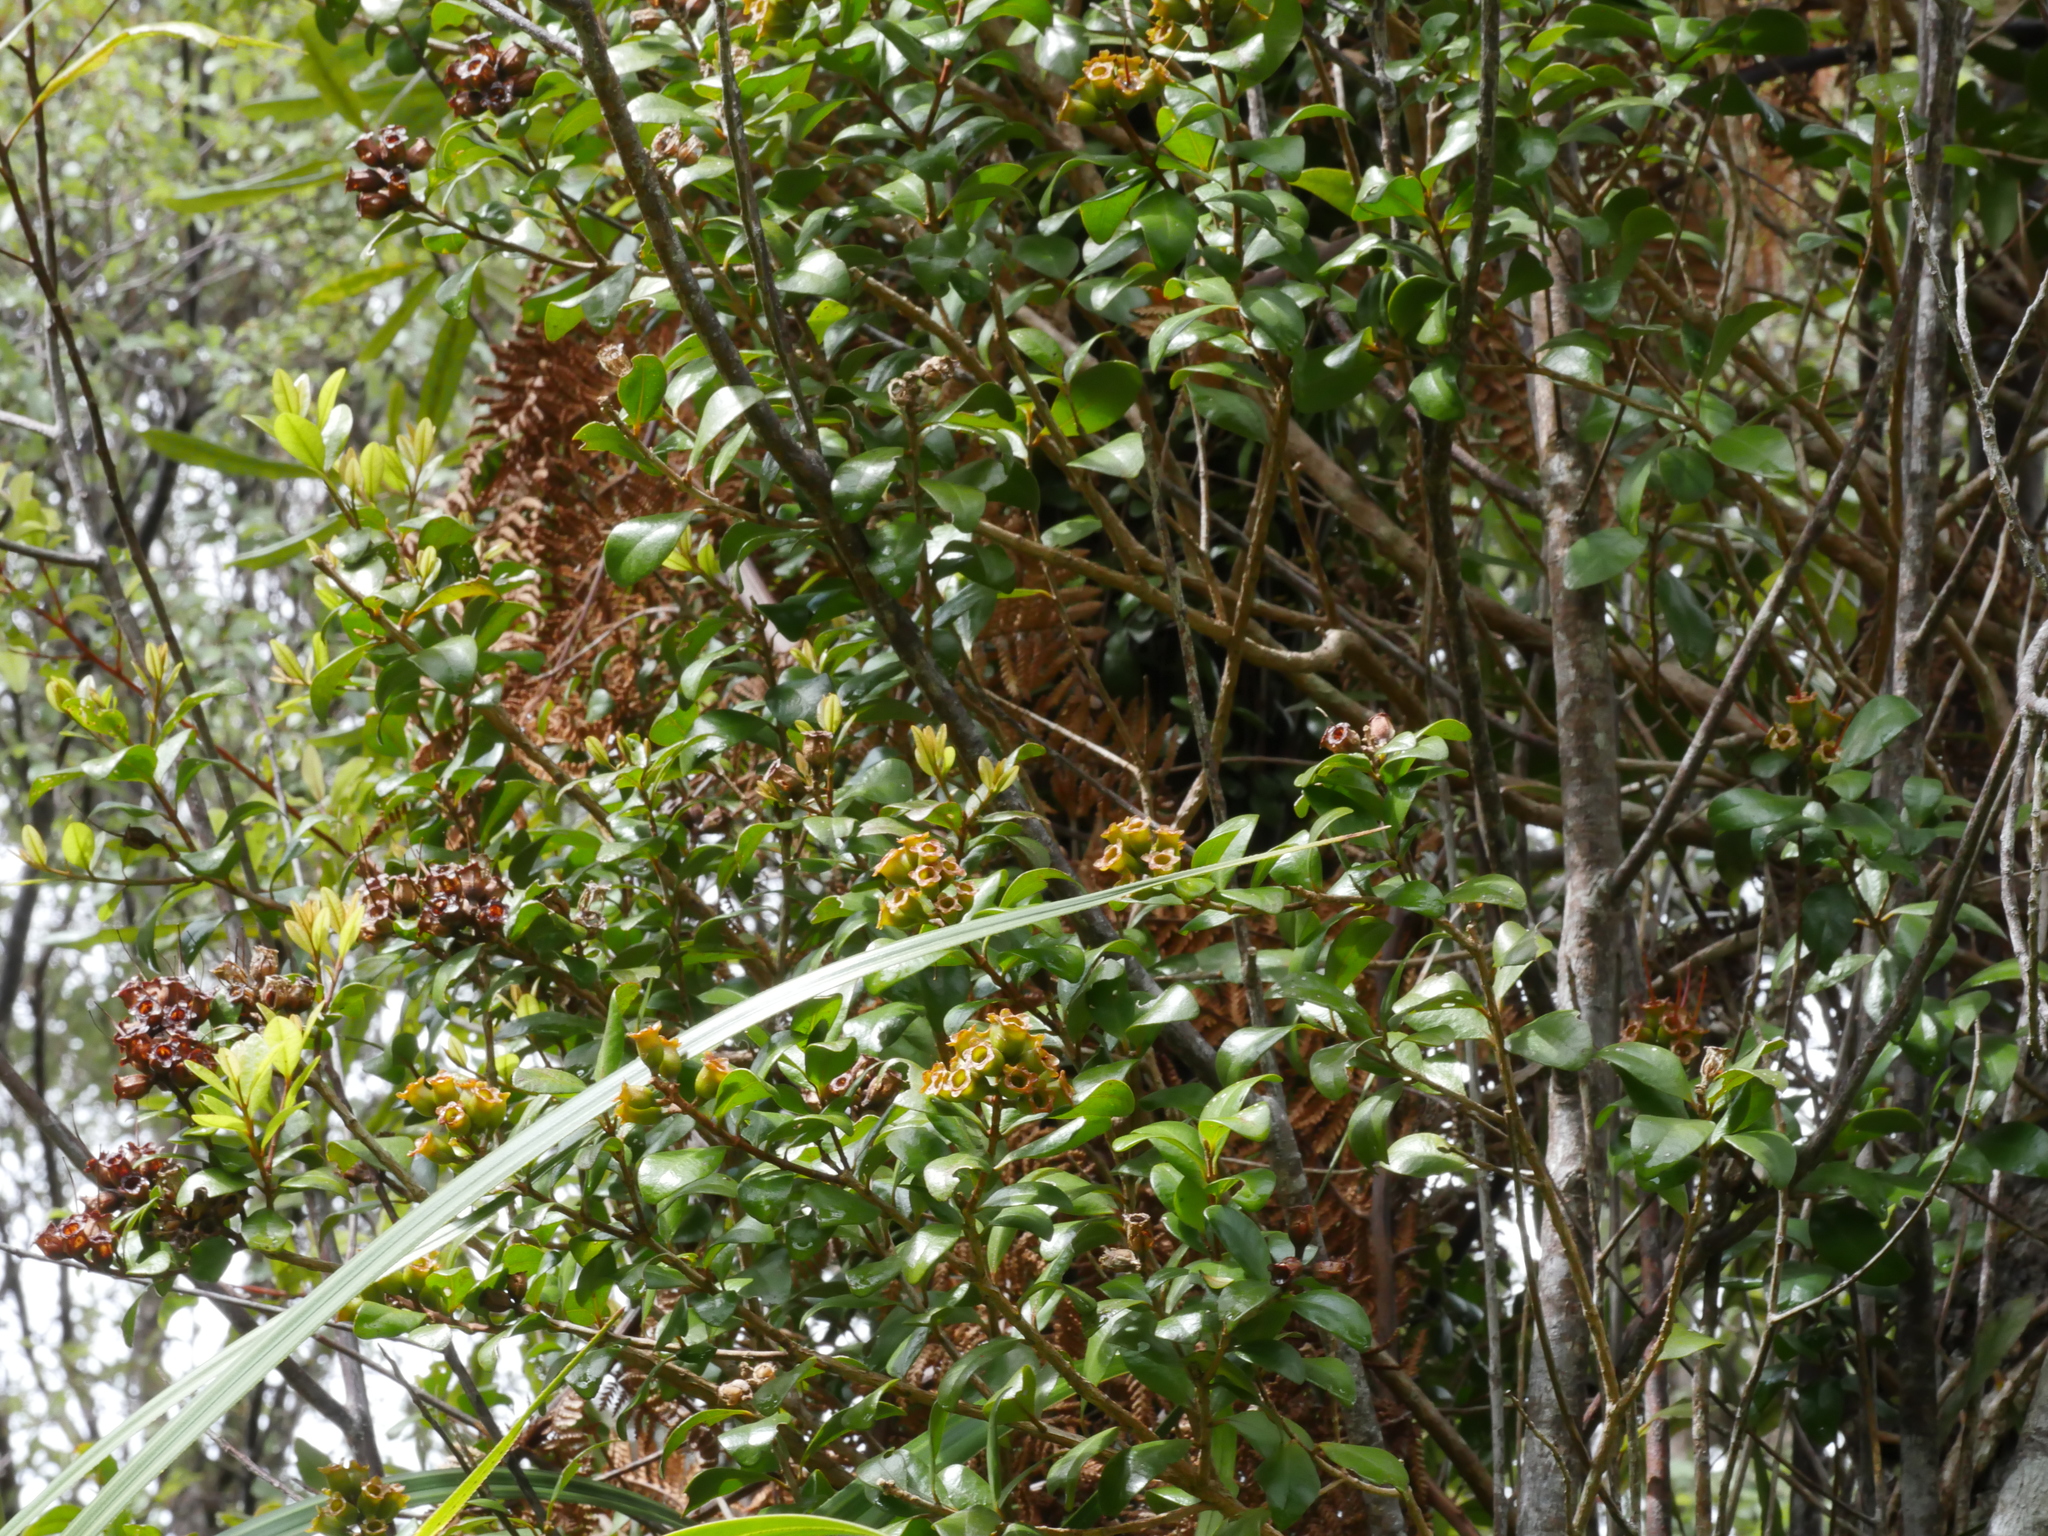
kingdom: Plantae
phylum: Tracheophyta
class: Magnoliopsida
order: Myrtales
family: Myrtaceae
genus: Metrosideros
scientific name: Metrosideros fulgens
